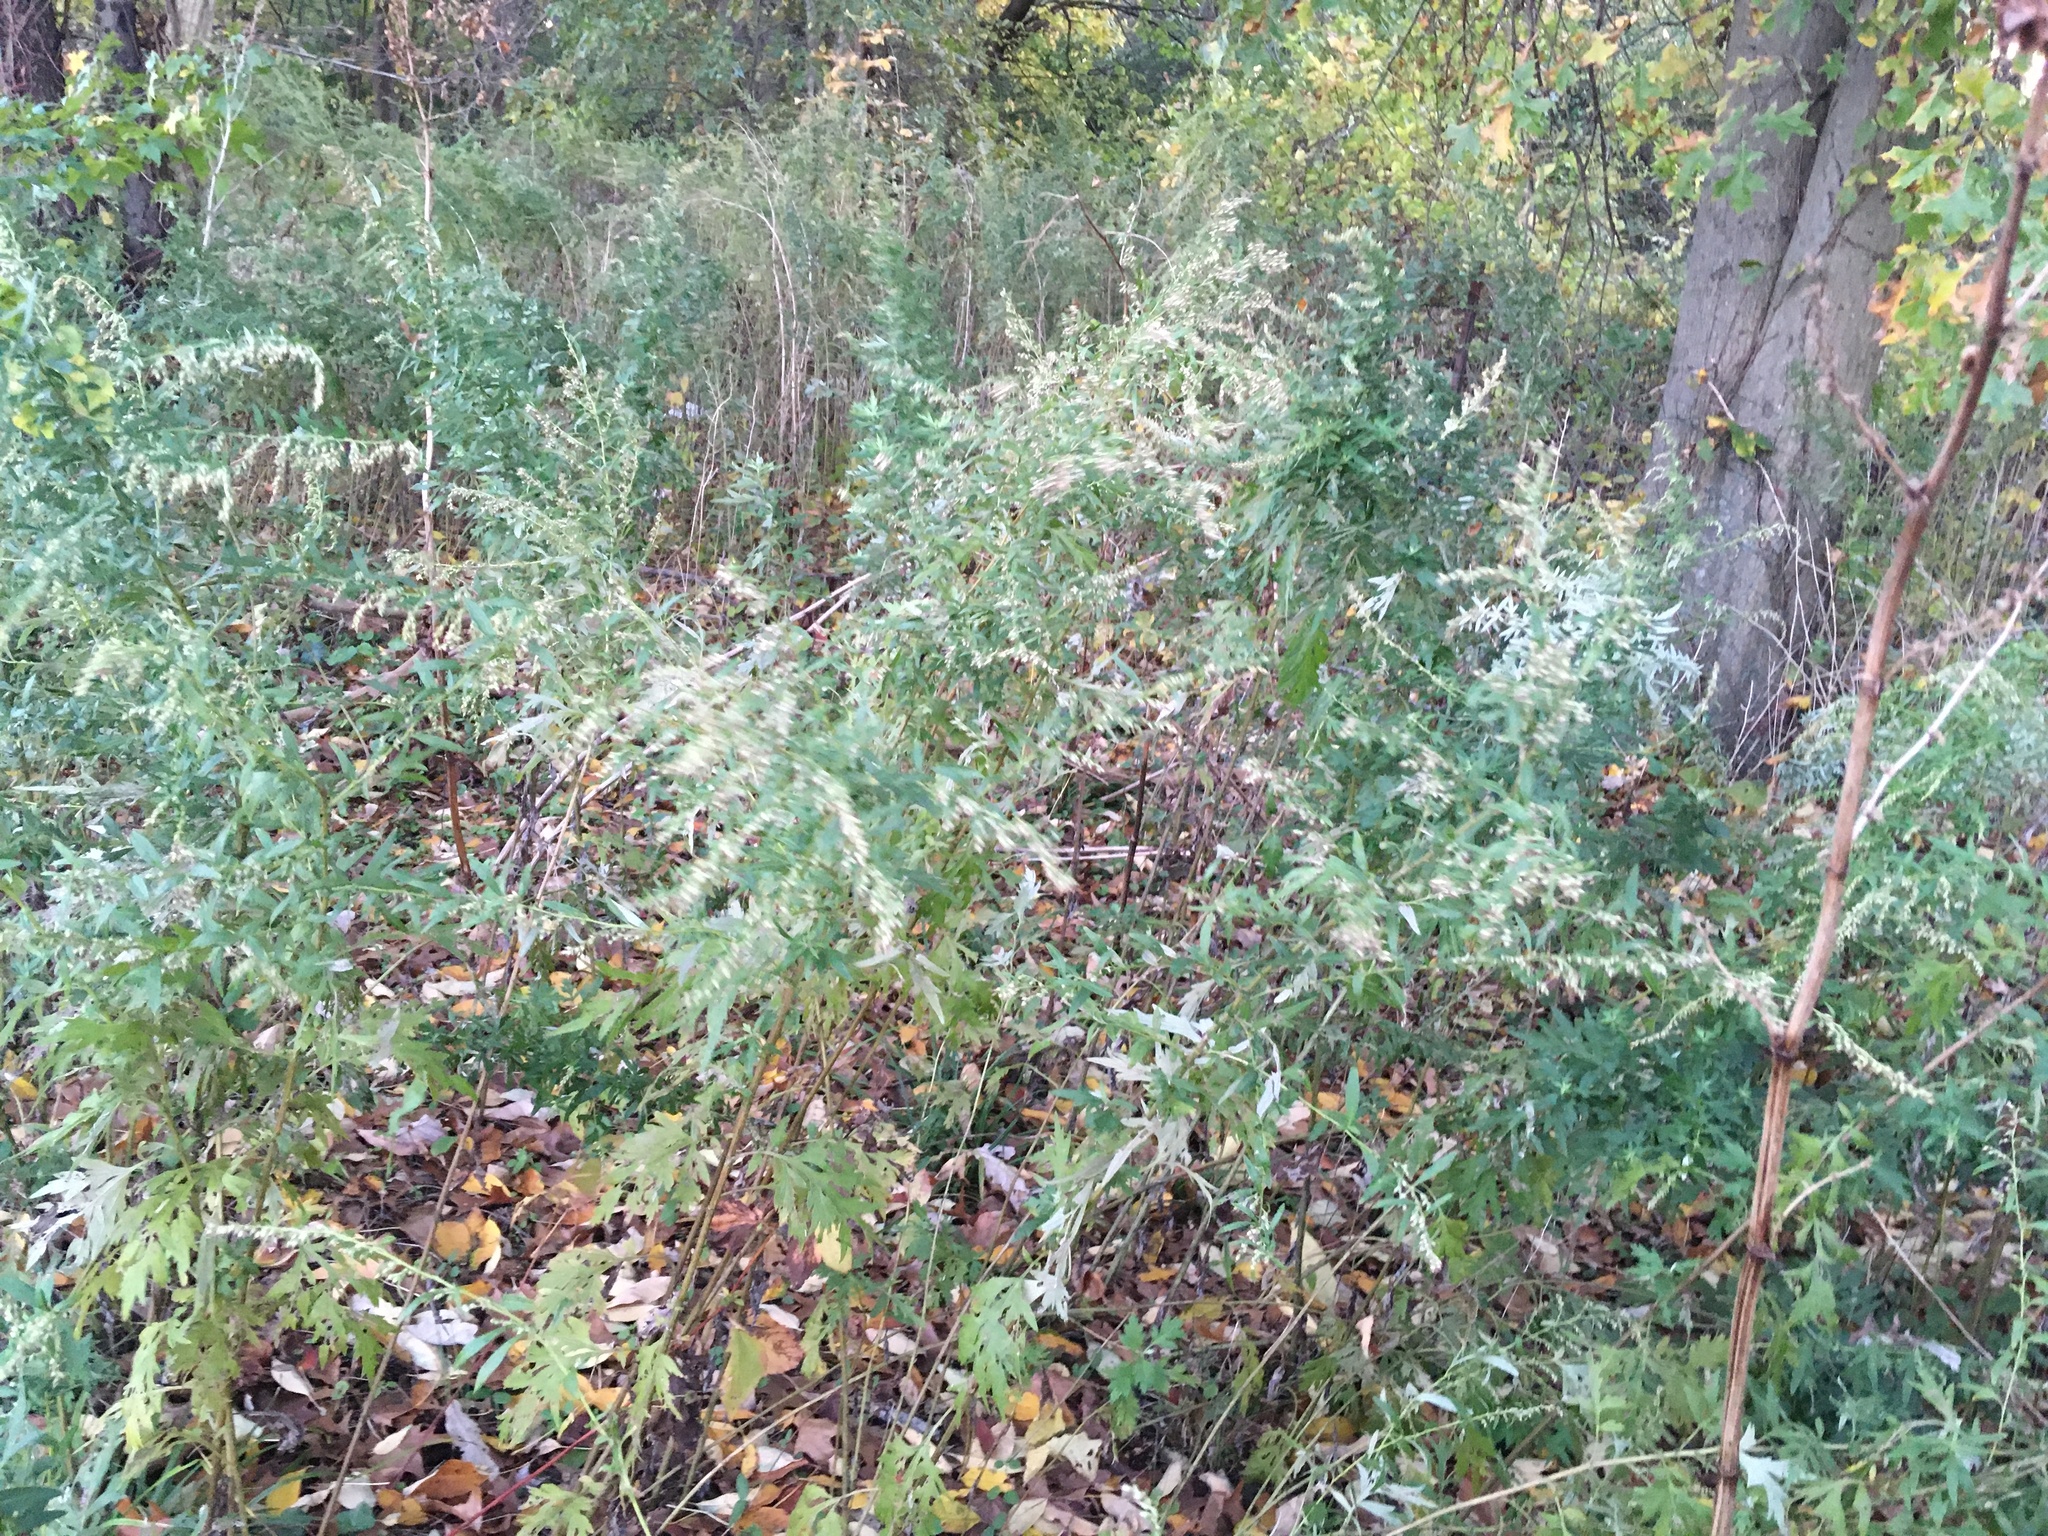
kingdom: Plantae
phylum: Tracheophyta
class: Magnoliopsida
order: Asterales
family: Asteraceae
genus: Artemisia
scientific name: Artemisia vulgaris
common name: Mugwort
